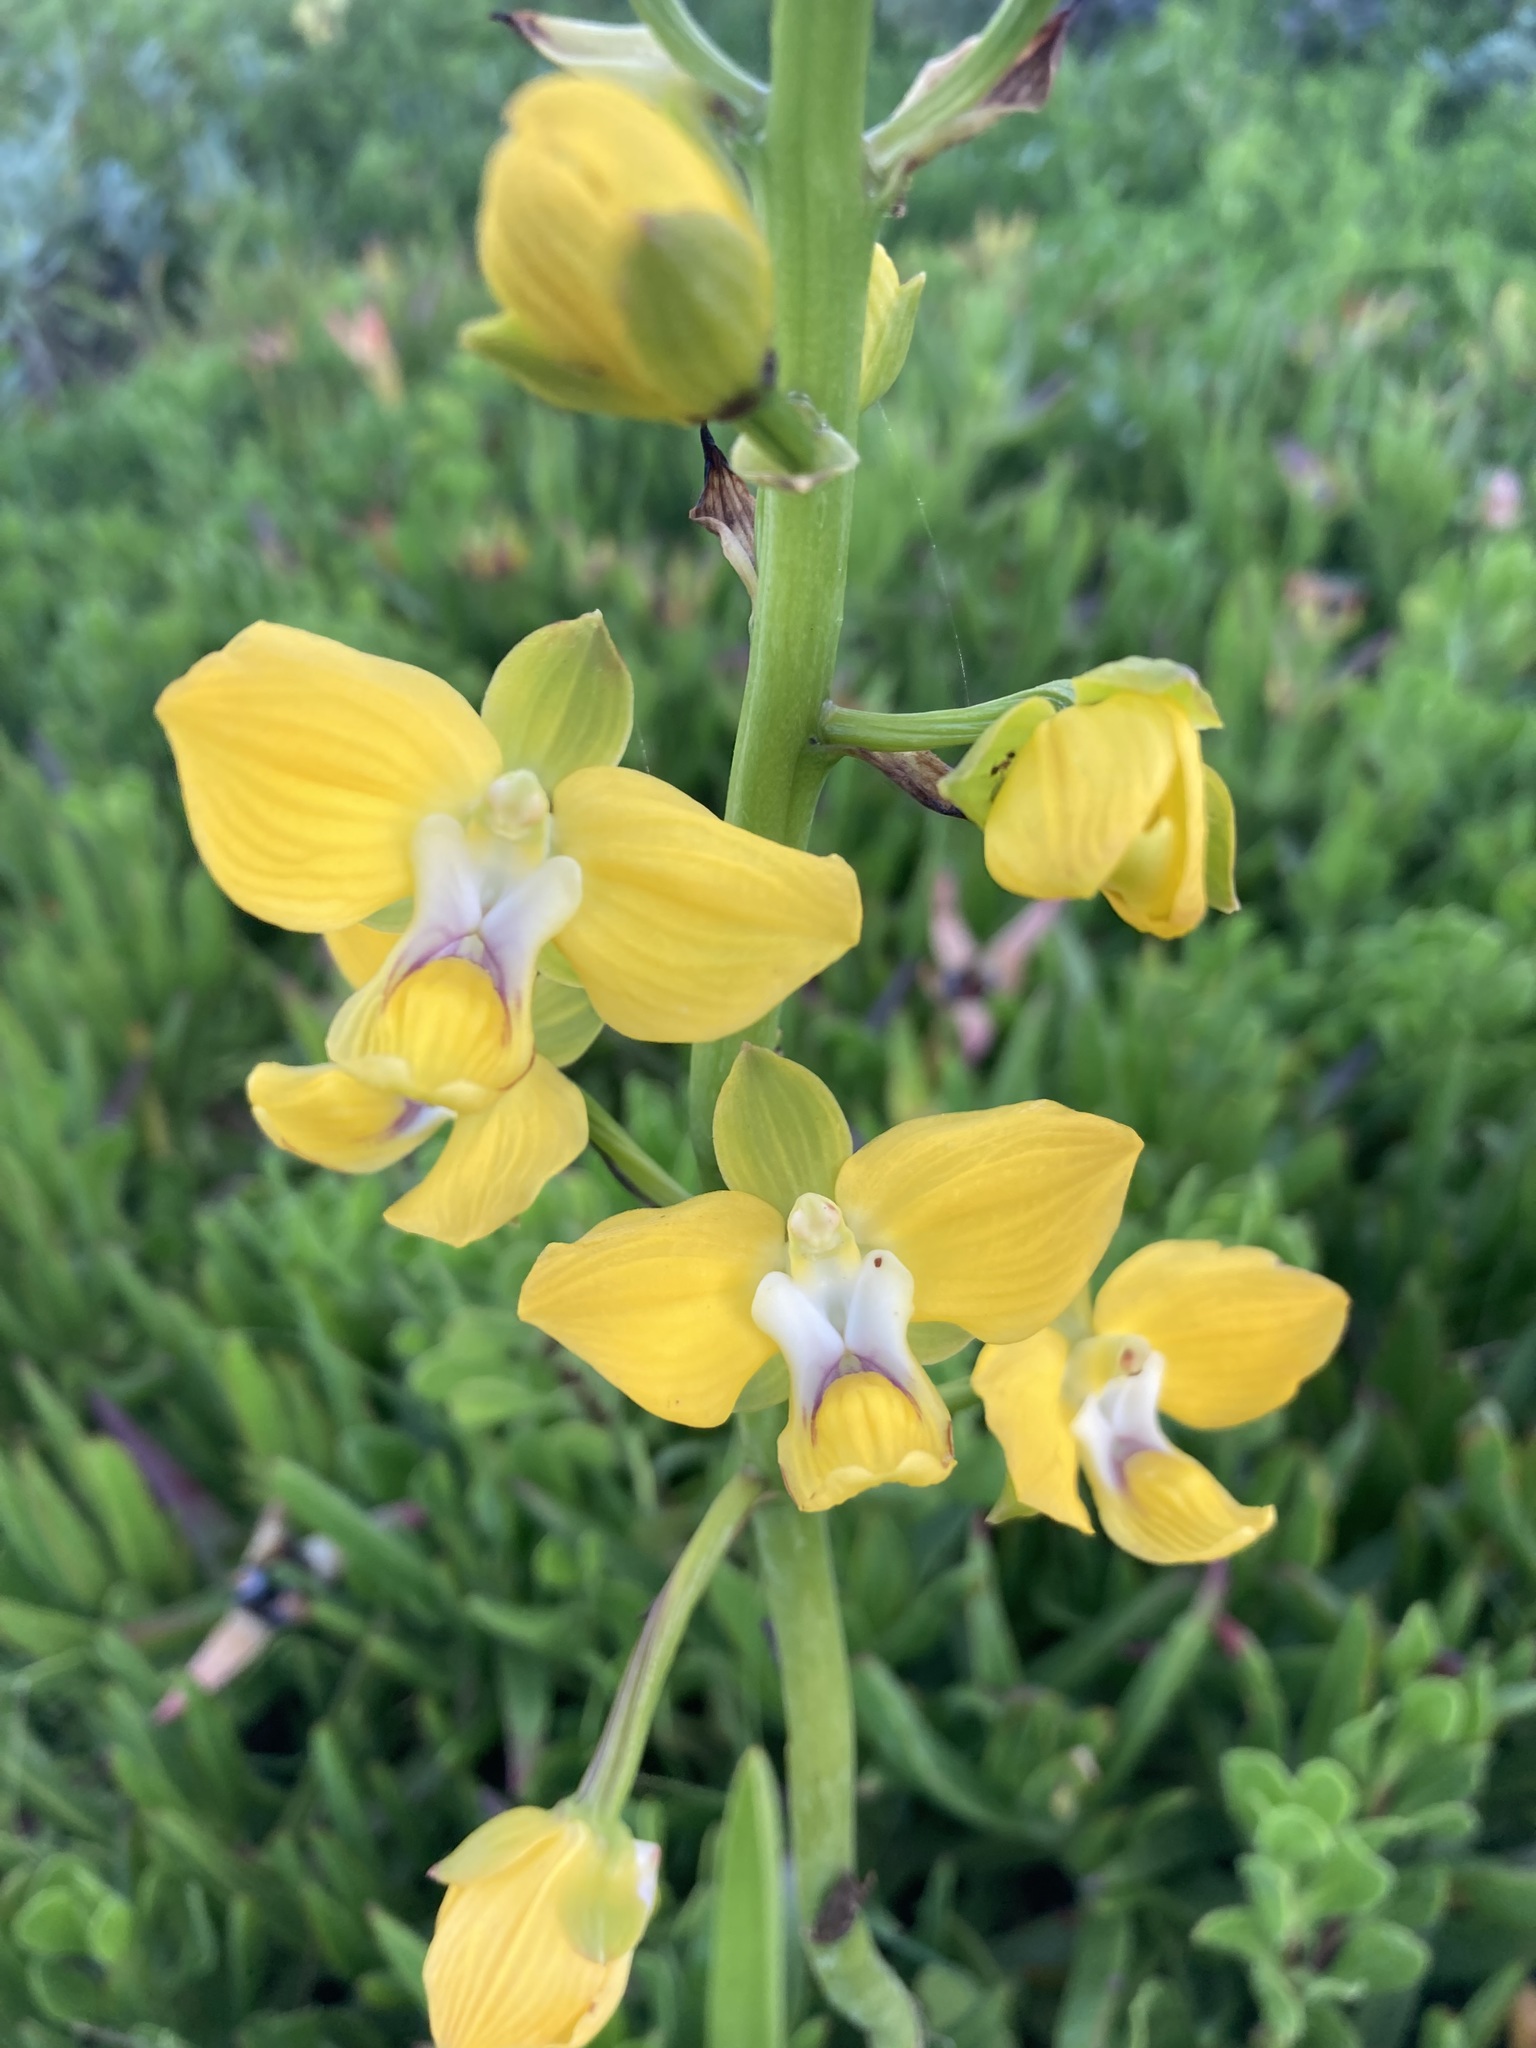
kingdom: Plantae
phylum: Tracheophyta
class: Liliopsida
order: Asparagales
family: Orchidaceae
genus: Eulophia
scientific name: Eulophia speciosa
